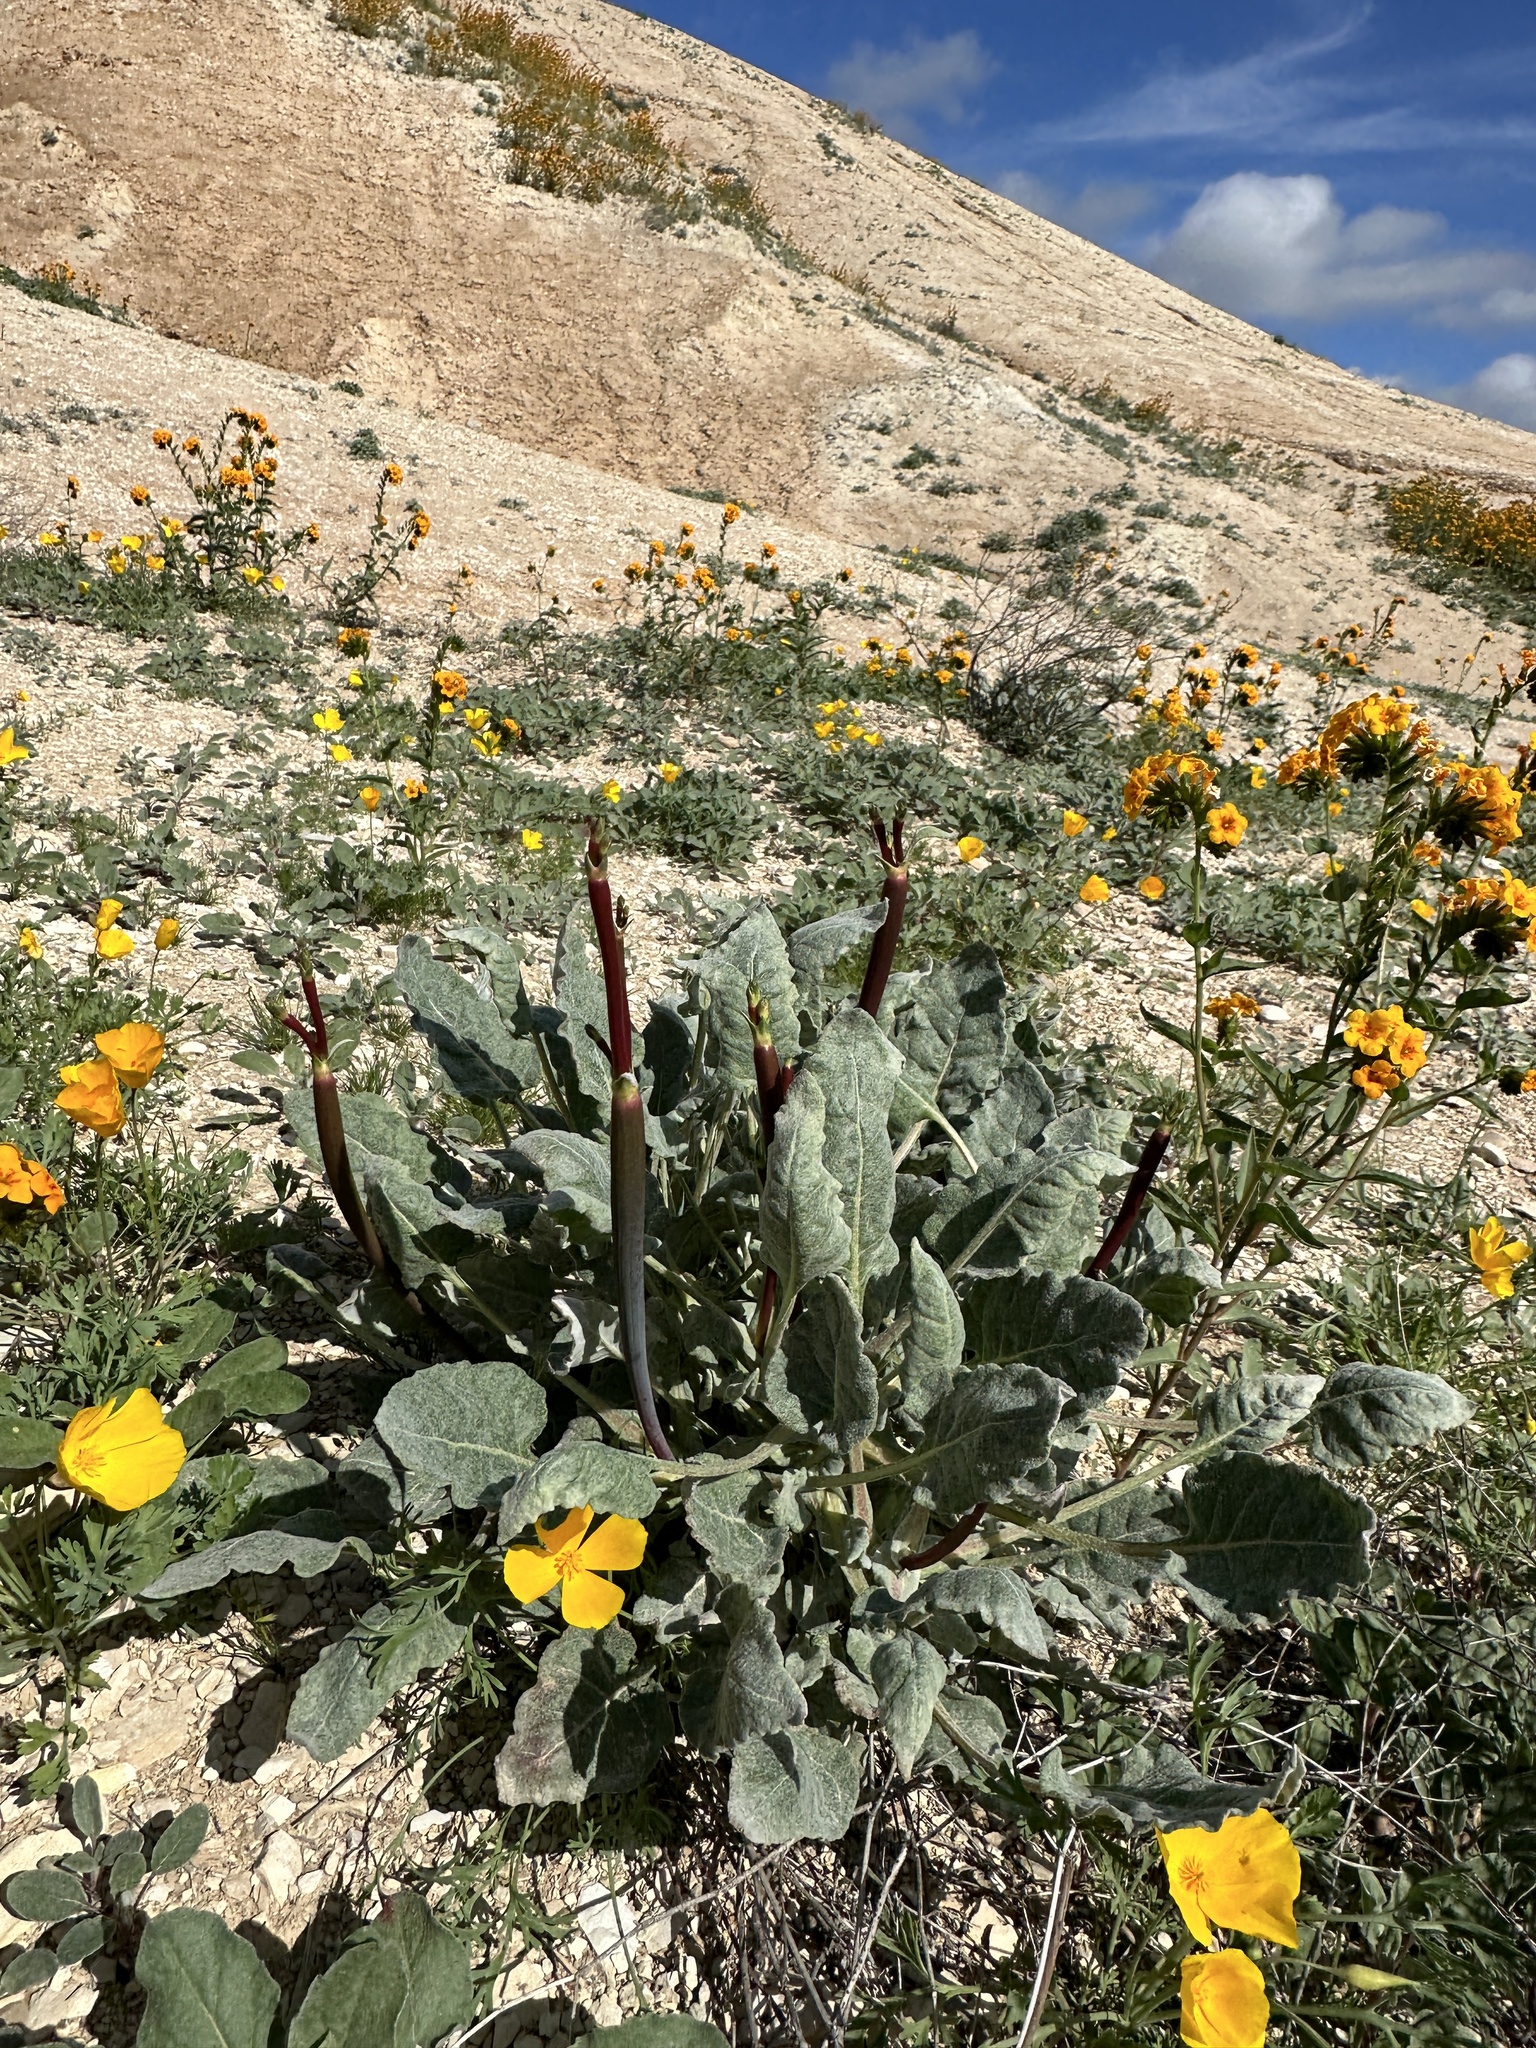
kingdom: Plantae
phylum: Tracheophyta
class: Magnoliopsida
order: Caryophyllales
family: Polygonaceae
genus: Eriogonum
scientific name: Eriogonum nudum
